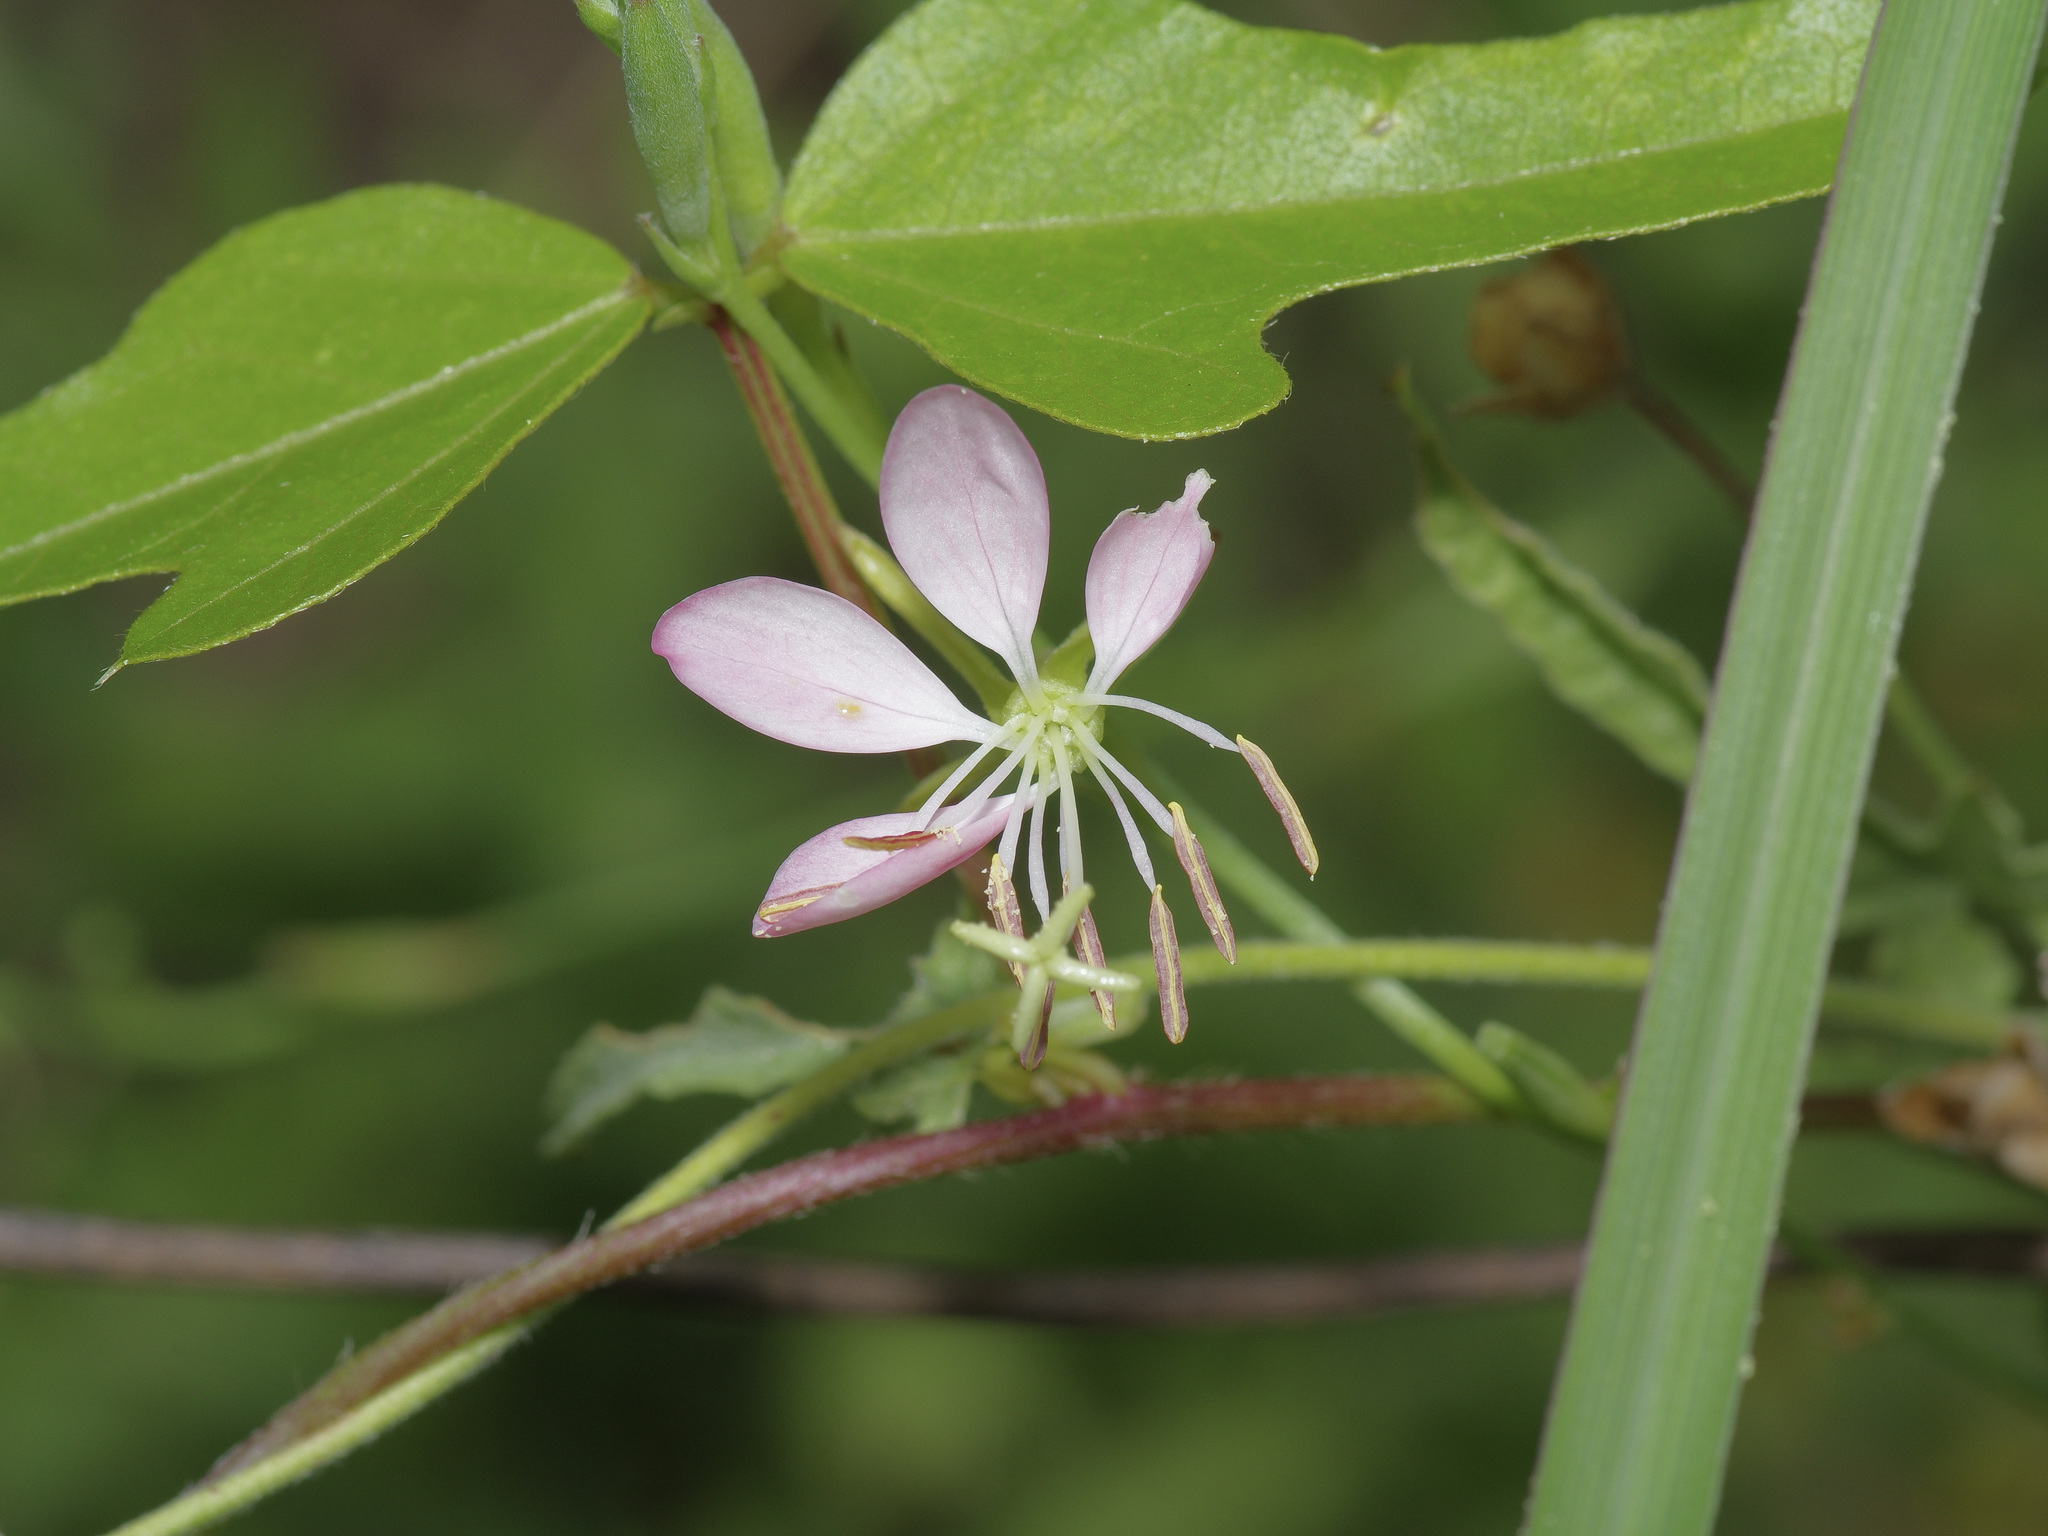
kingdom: Plantae
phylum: Tracheophyta
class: Magnoliopsida
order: Myrtales
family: Onagraceae
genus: Oenothera
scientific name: Oenothera suffulta
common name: Kisses
